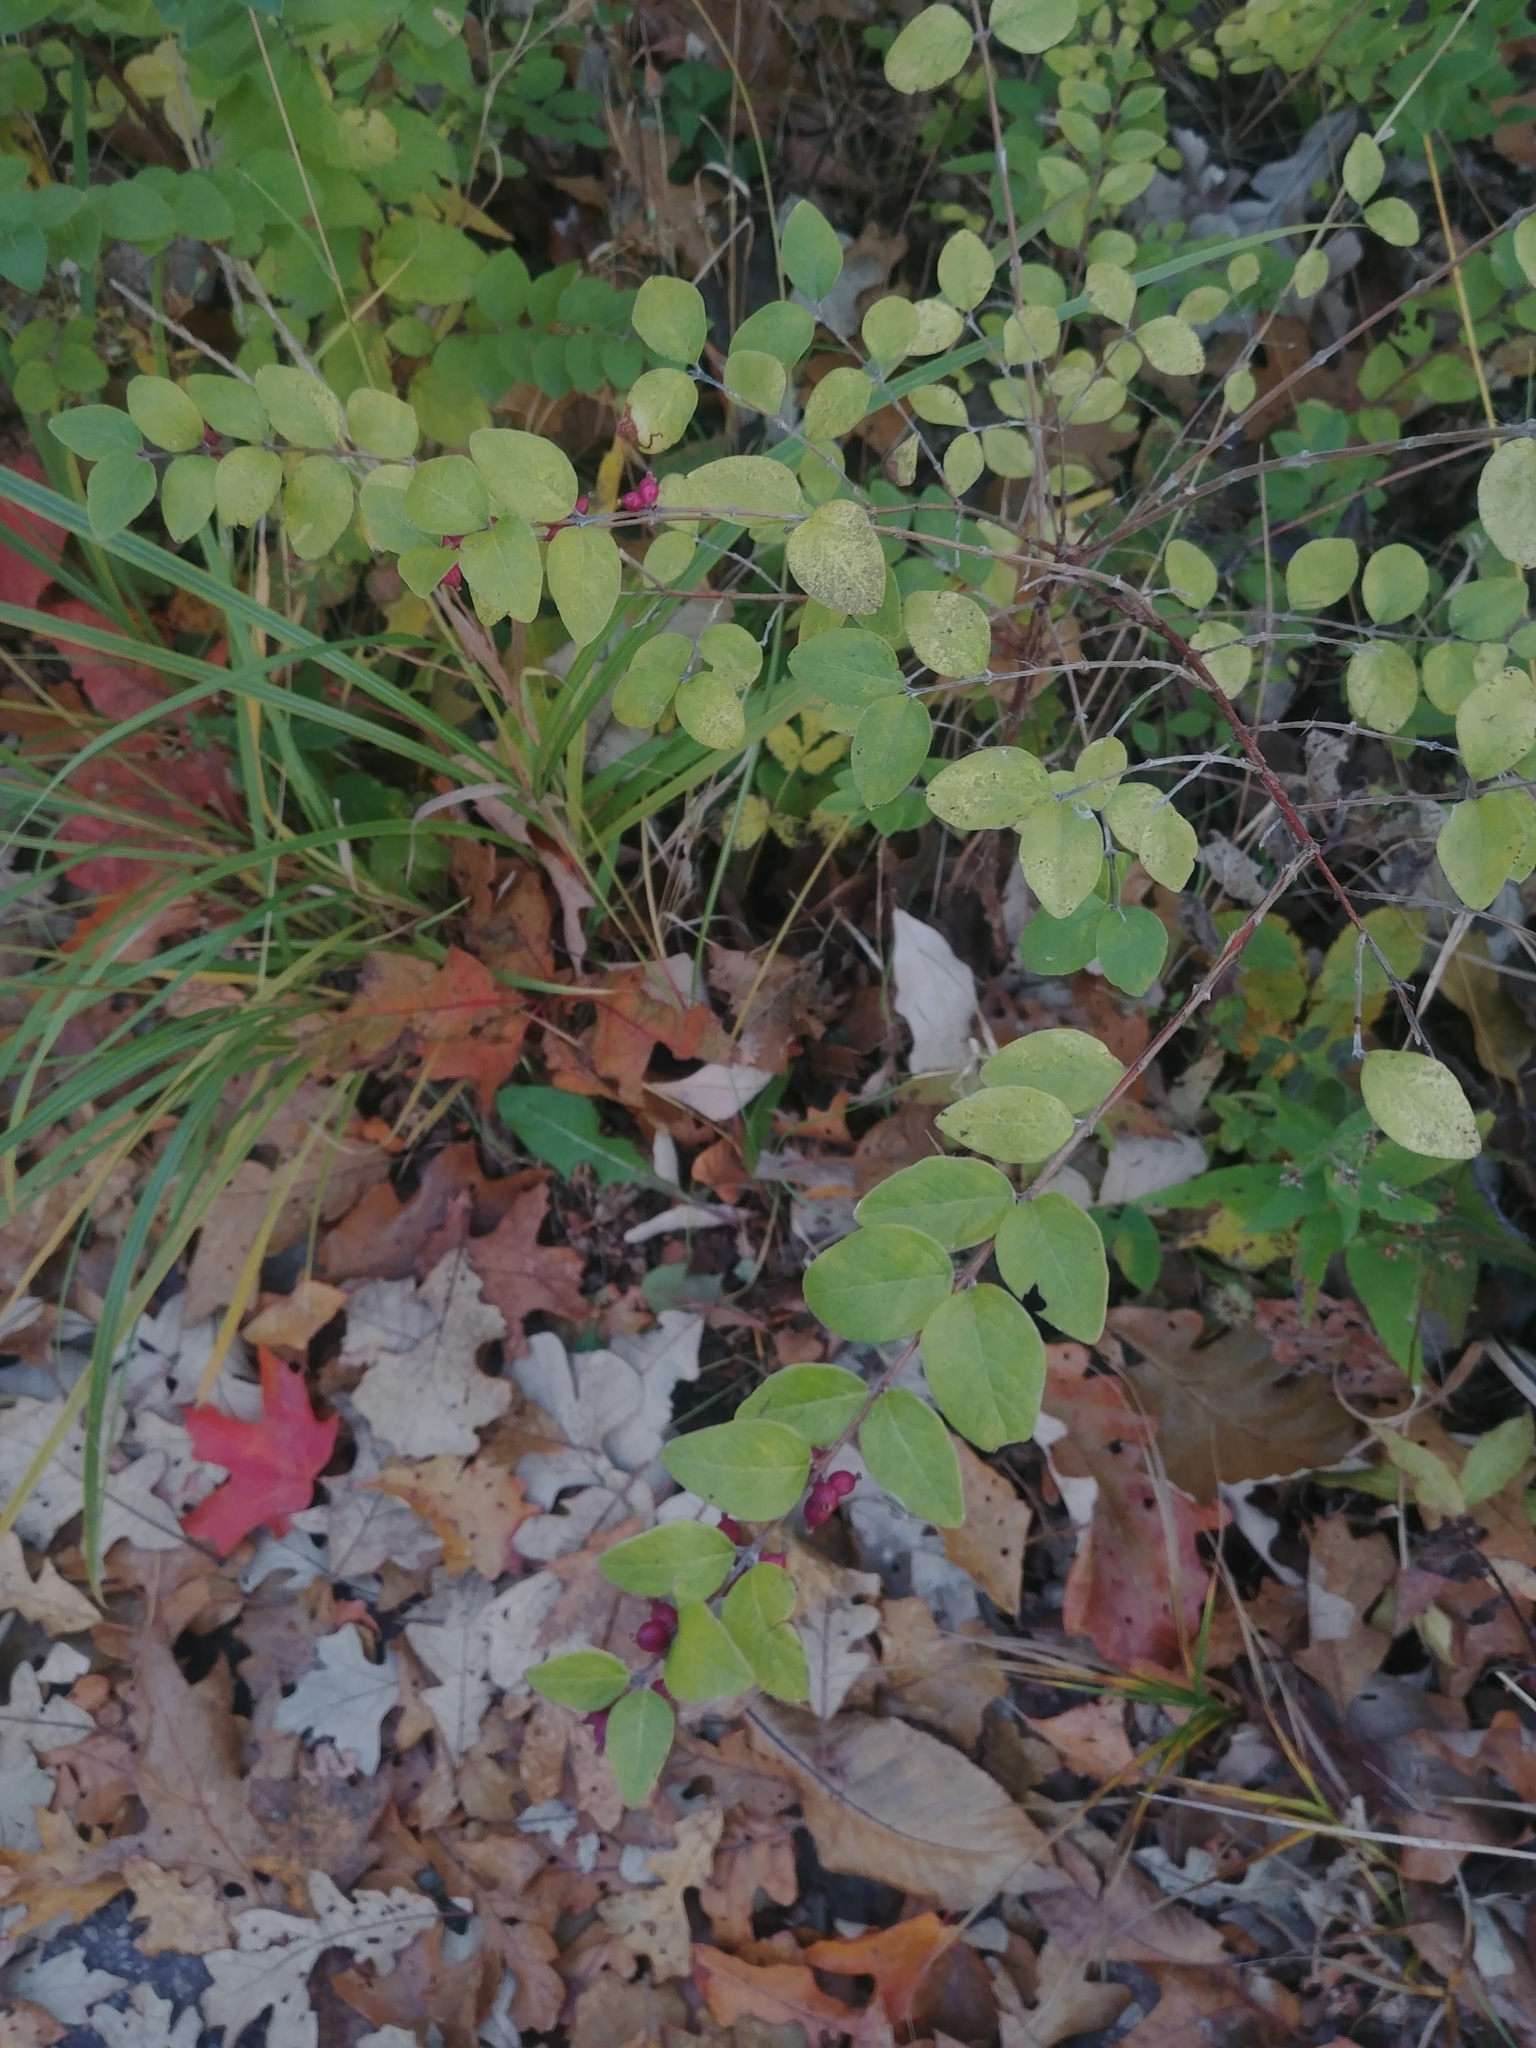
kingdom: Plantae
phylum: Tracheophyta
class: Magnoliopsida
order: Dipsacales
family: Caprifoliaceae
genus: Symphoricarpos
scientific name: Symphoricarpos orbiculatus
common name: Coralberry
